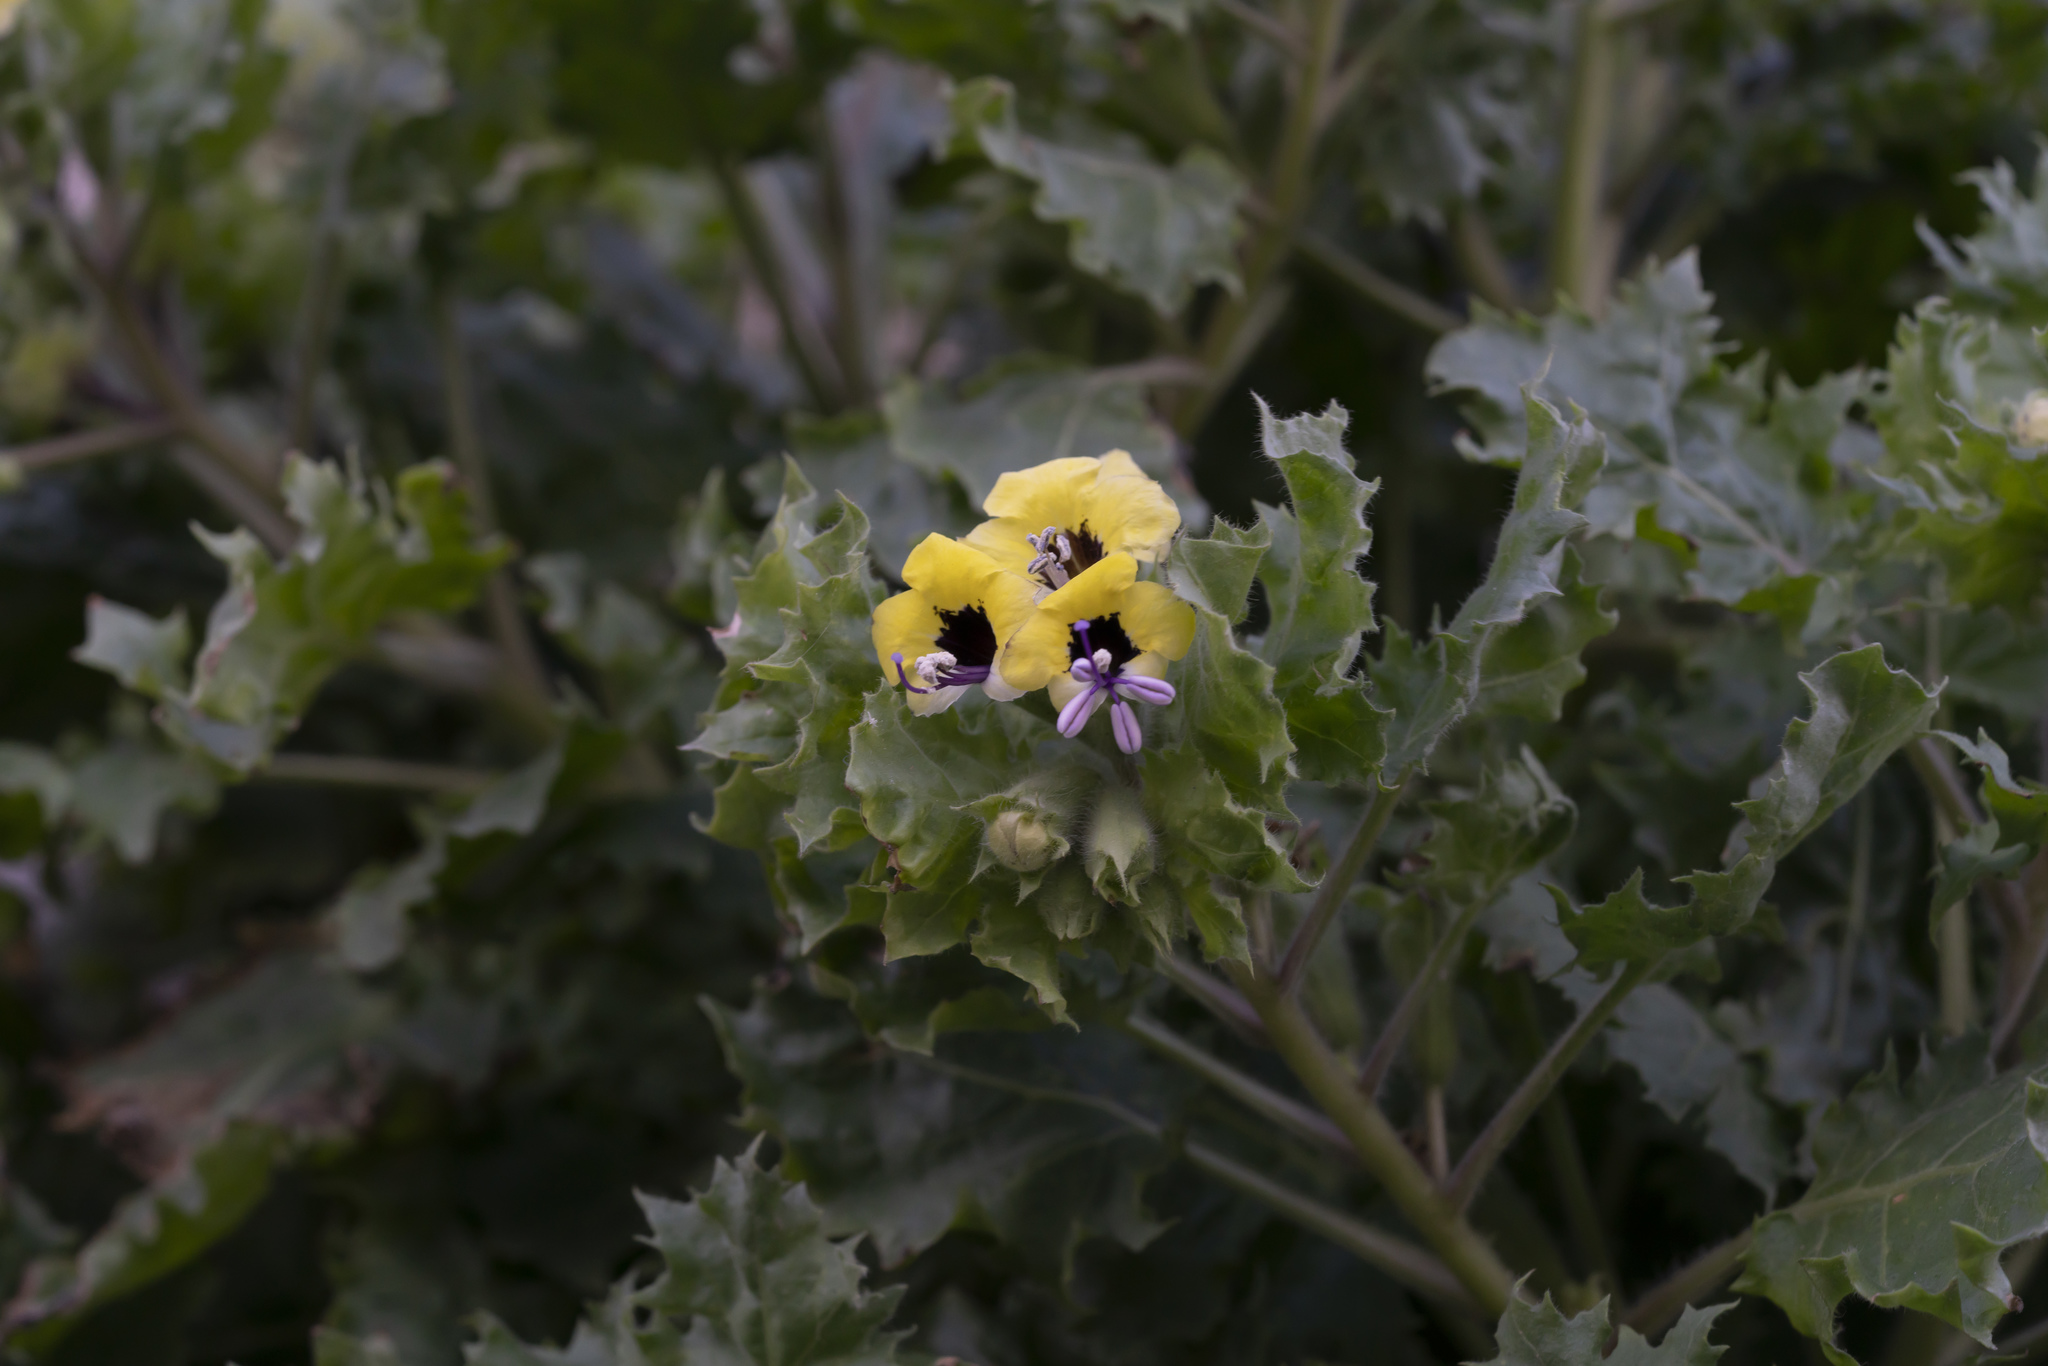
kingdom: Plantae
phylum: Tracheophyta
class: Magnoliopsida
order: Solanales
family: Solanaceae
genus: Hyoscyamus
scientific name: Hyoscyamus aureus
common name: Golden henbane
